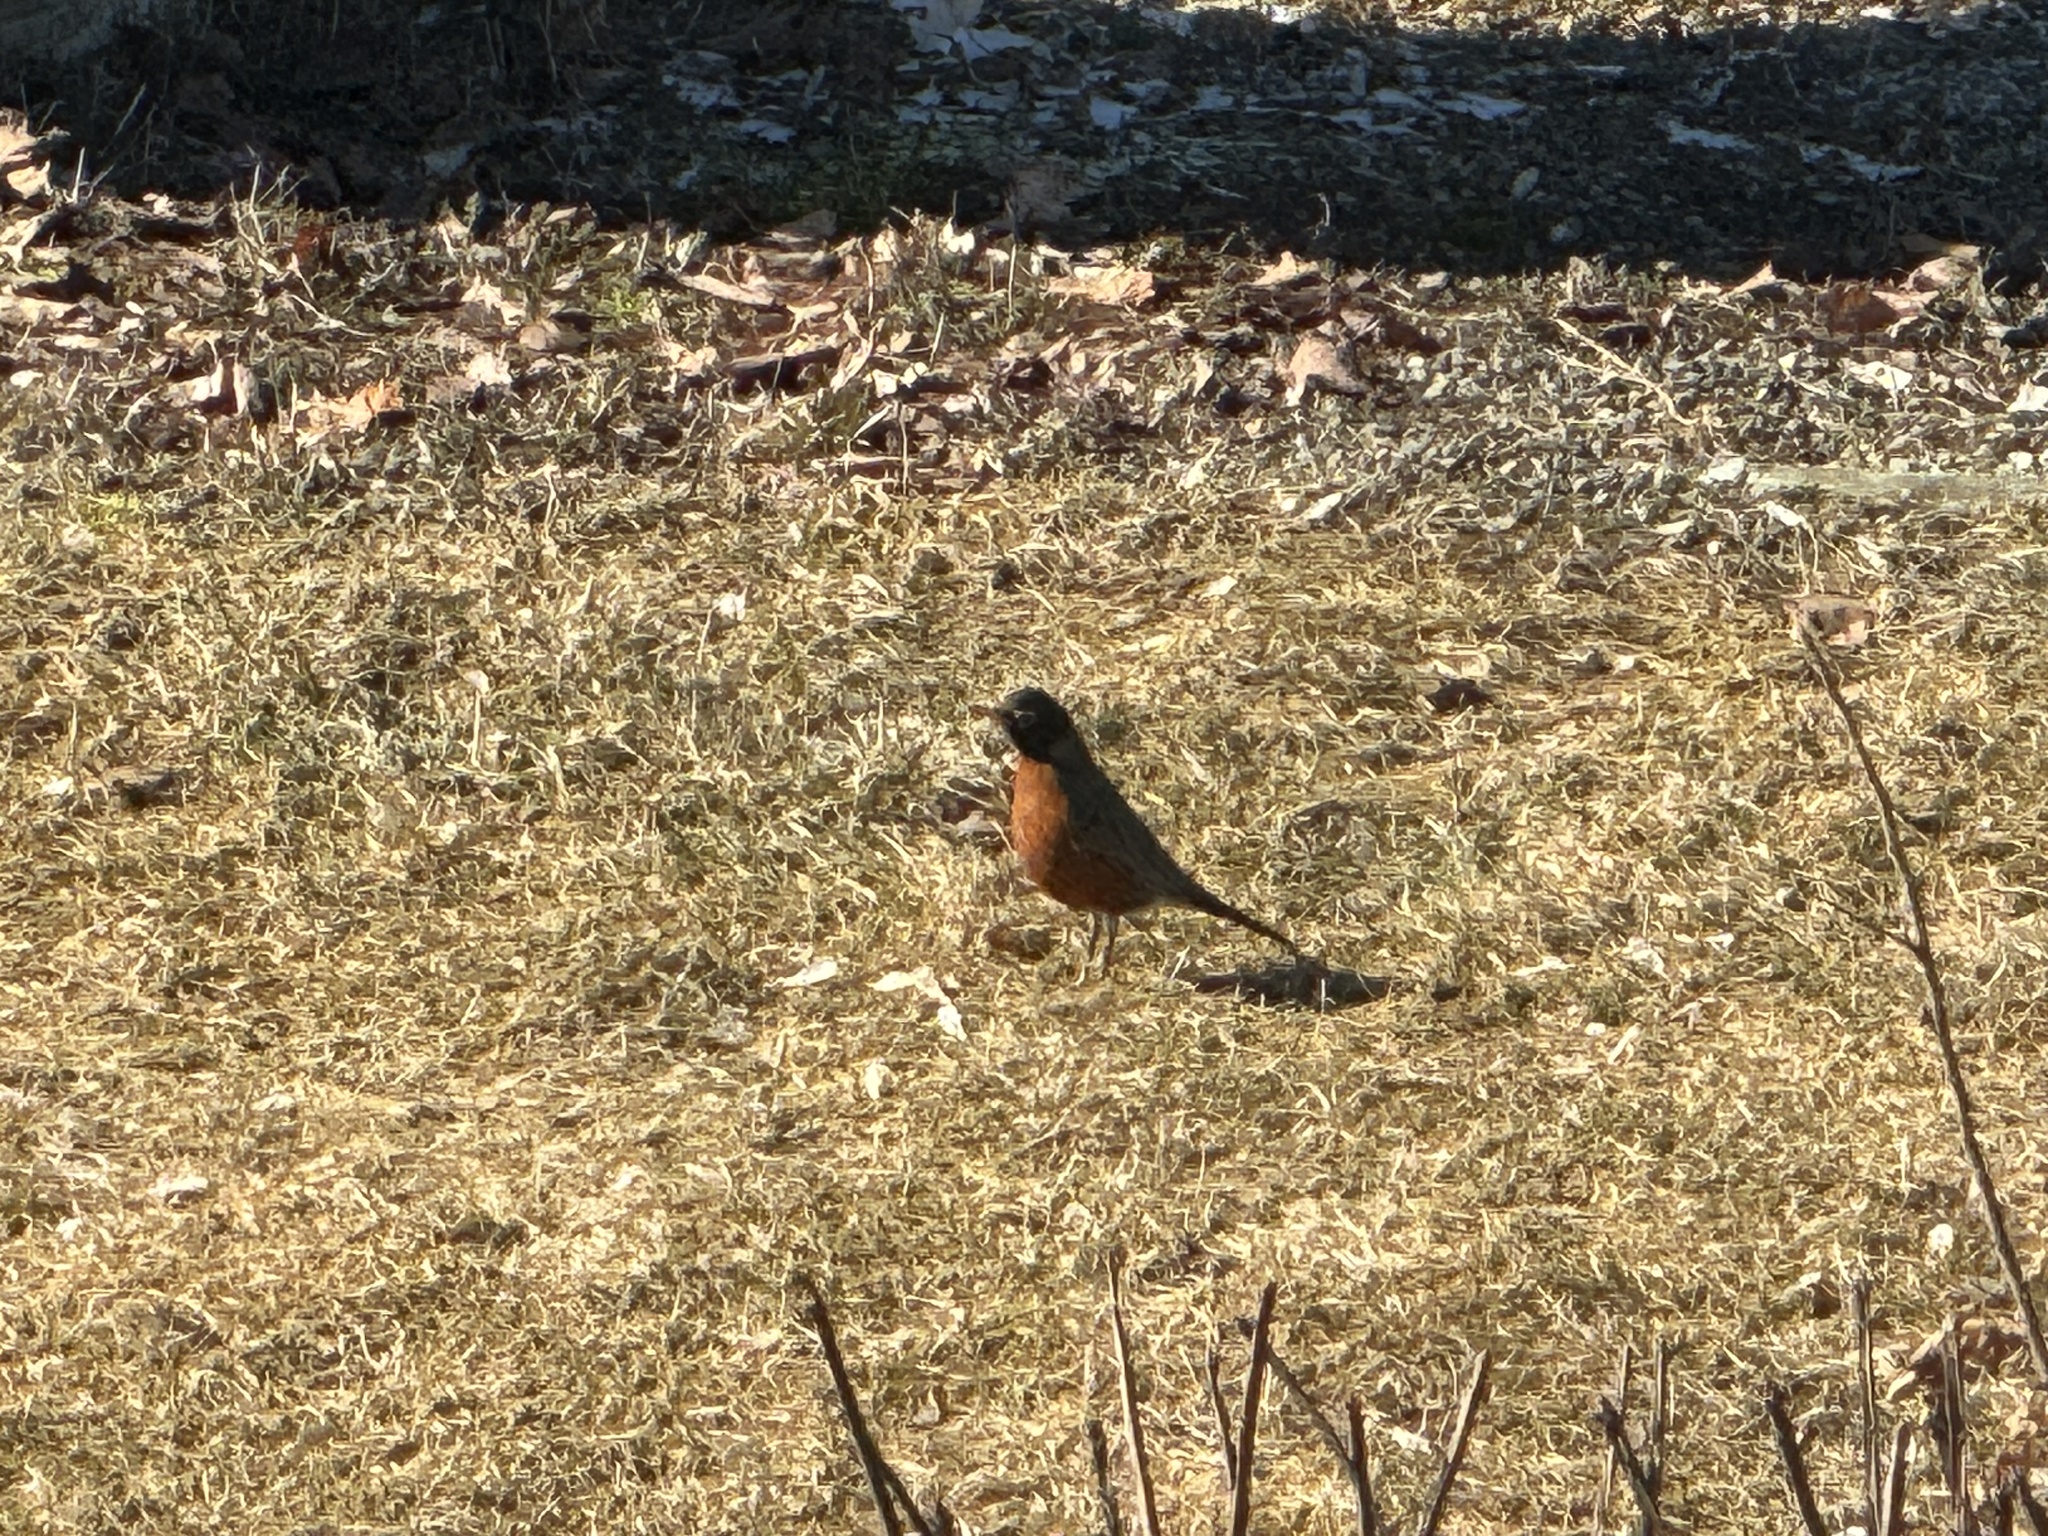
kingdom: Animalia
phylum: Chordata
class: Aves
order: Passeriformes
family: Turdidae
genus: Turdus
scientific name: Turdus migratorius
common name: American robin
